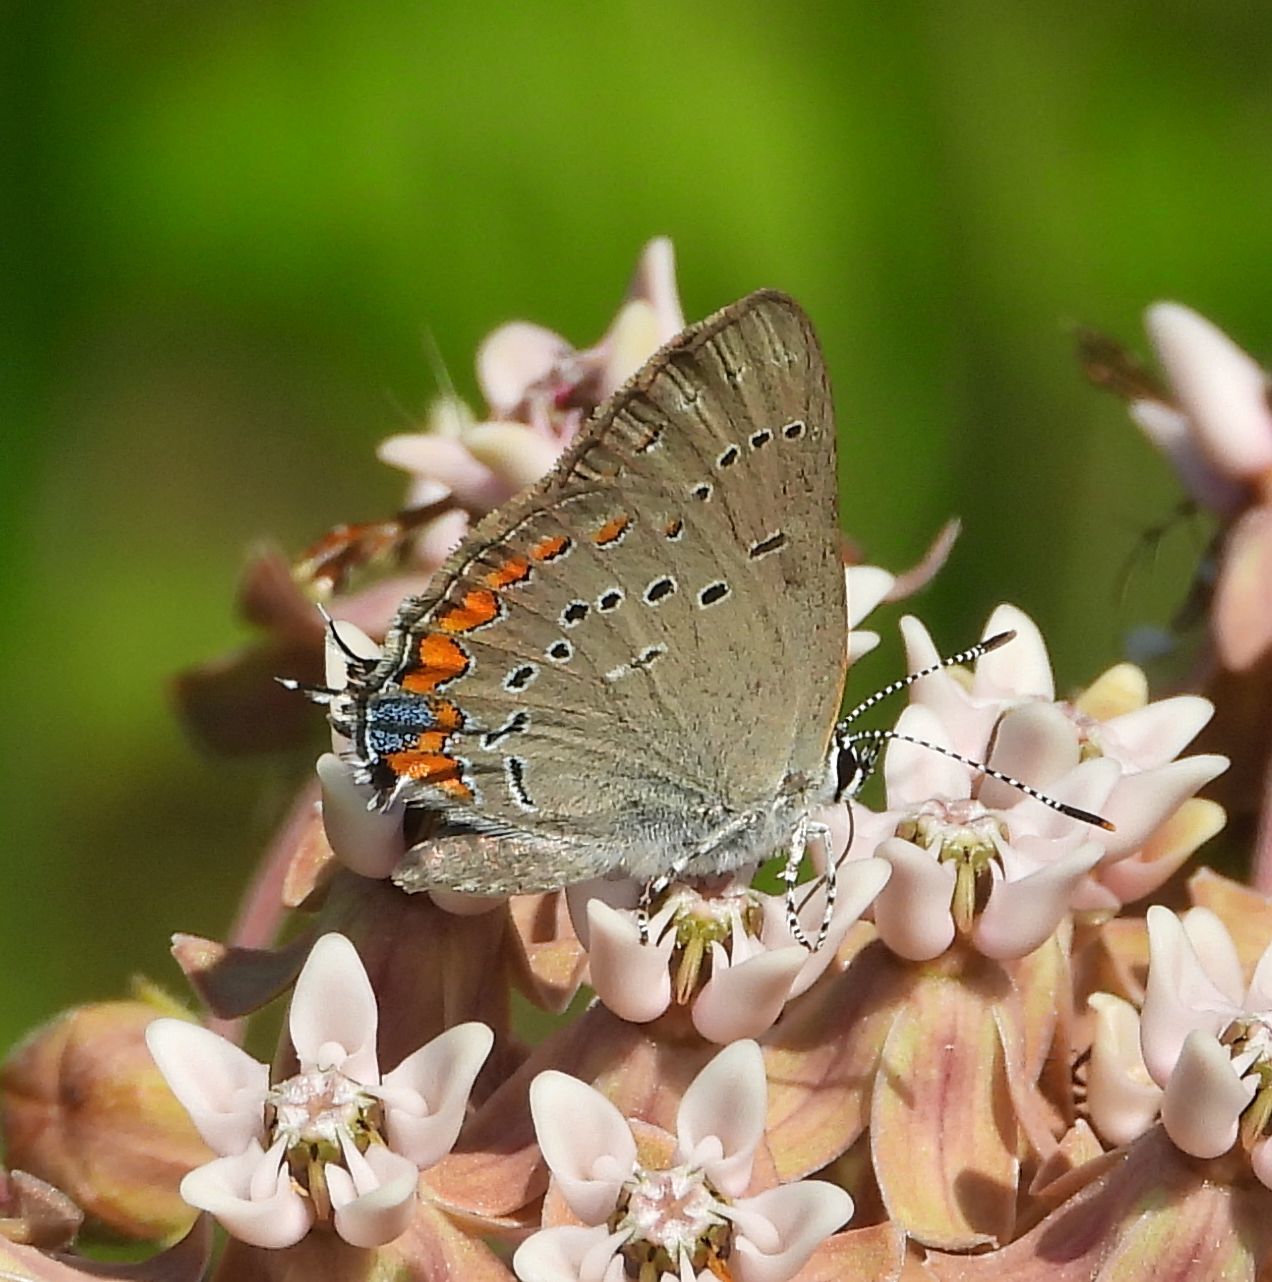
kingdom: Animalia
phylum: Arthropoda
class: Insecta
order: Lepidoptera
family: Lycaenidae
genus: Strymon
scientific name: Strymon acadica
